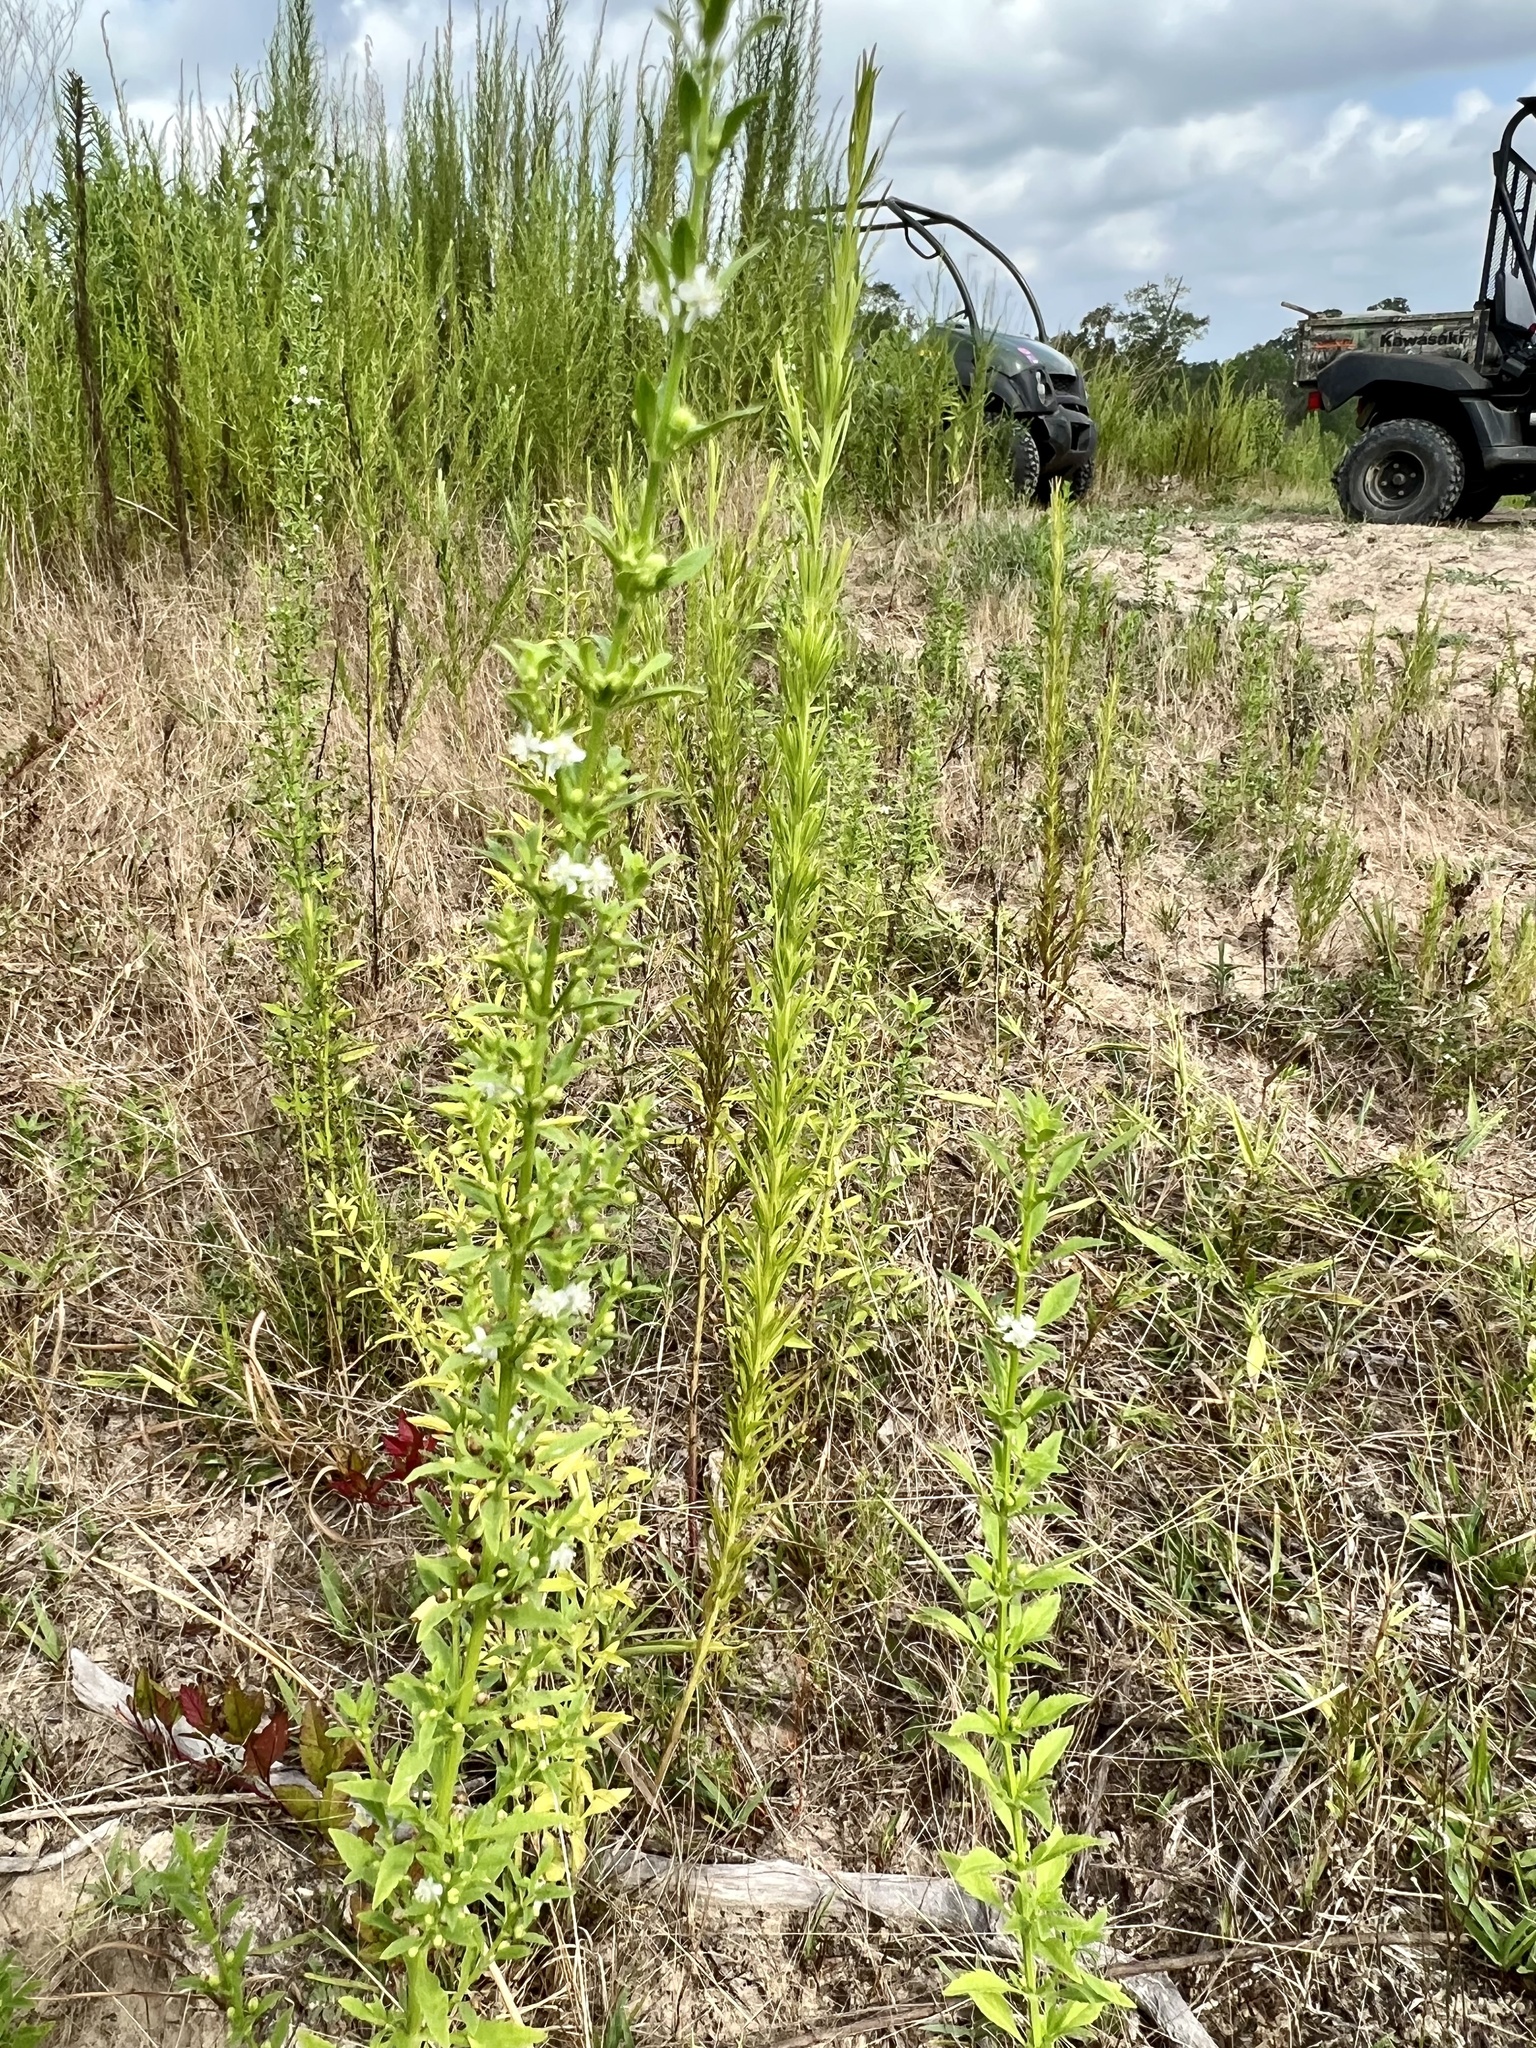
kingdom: Plantae
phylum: Tracheophyta
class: Magnoliopsida
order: Lamiales
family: Plantaginaceae
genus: Scoparia
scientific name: Scoparia dulcis
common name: Scoparia-weed
